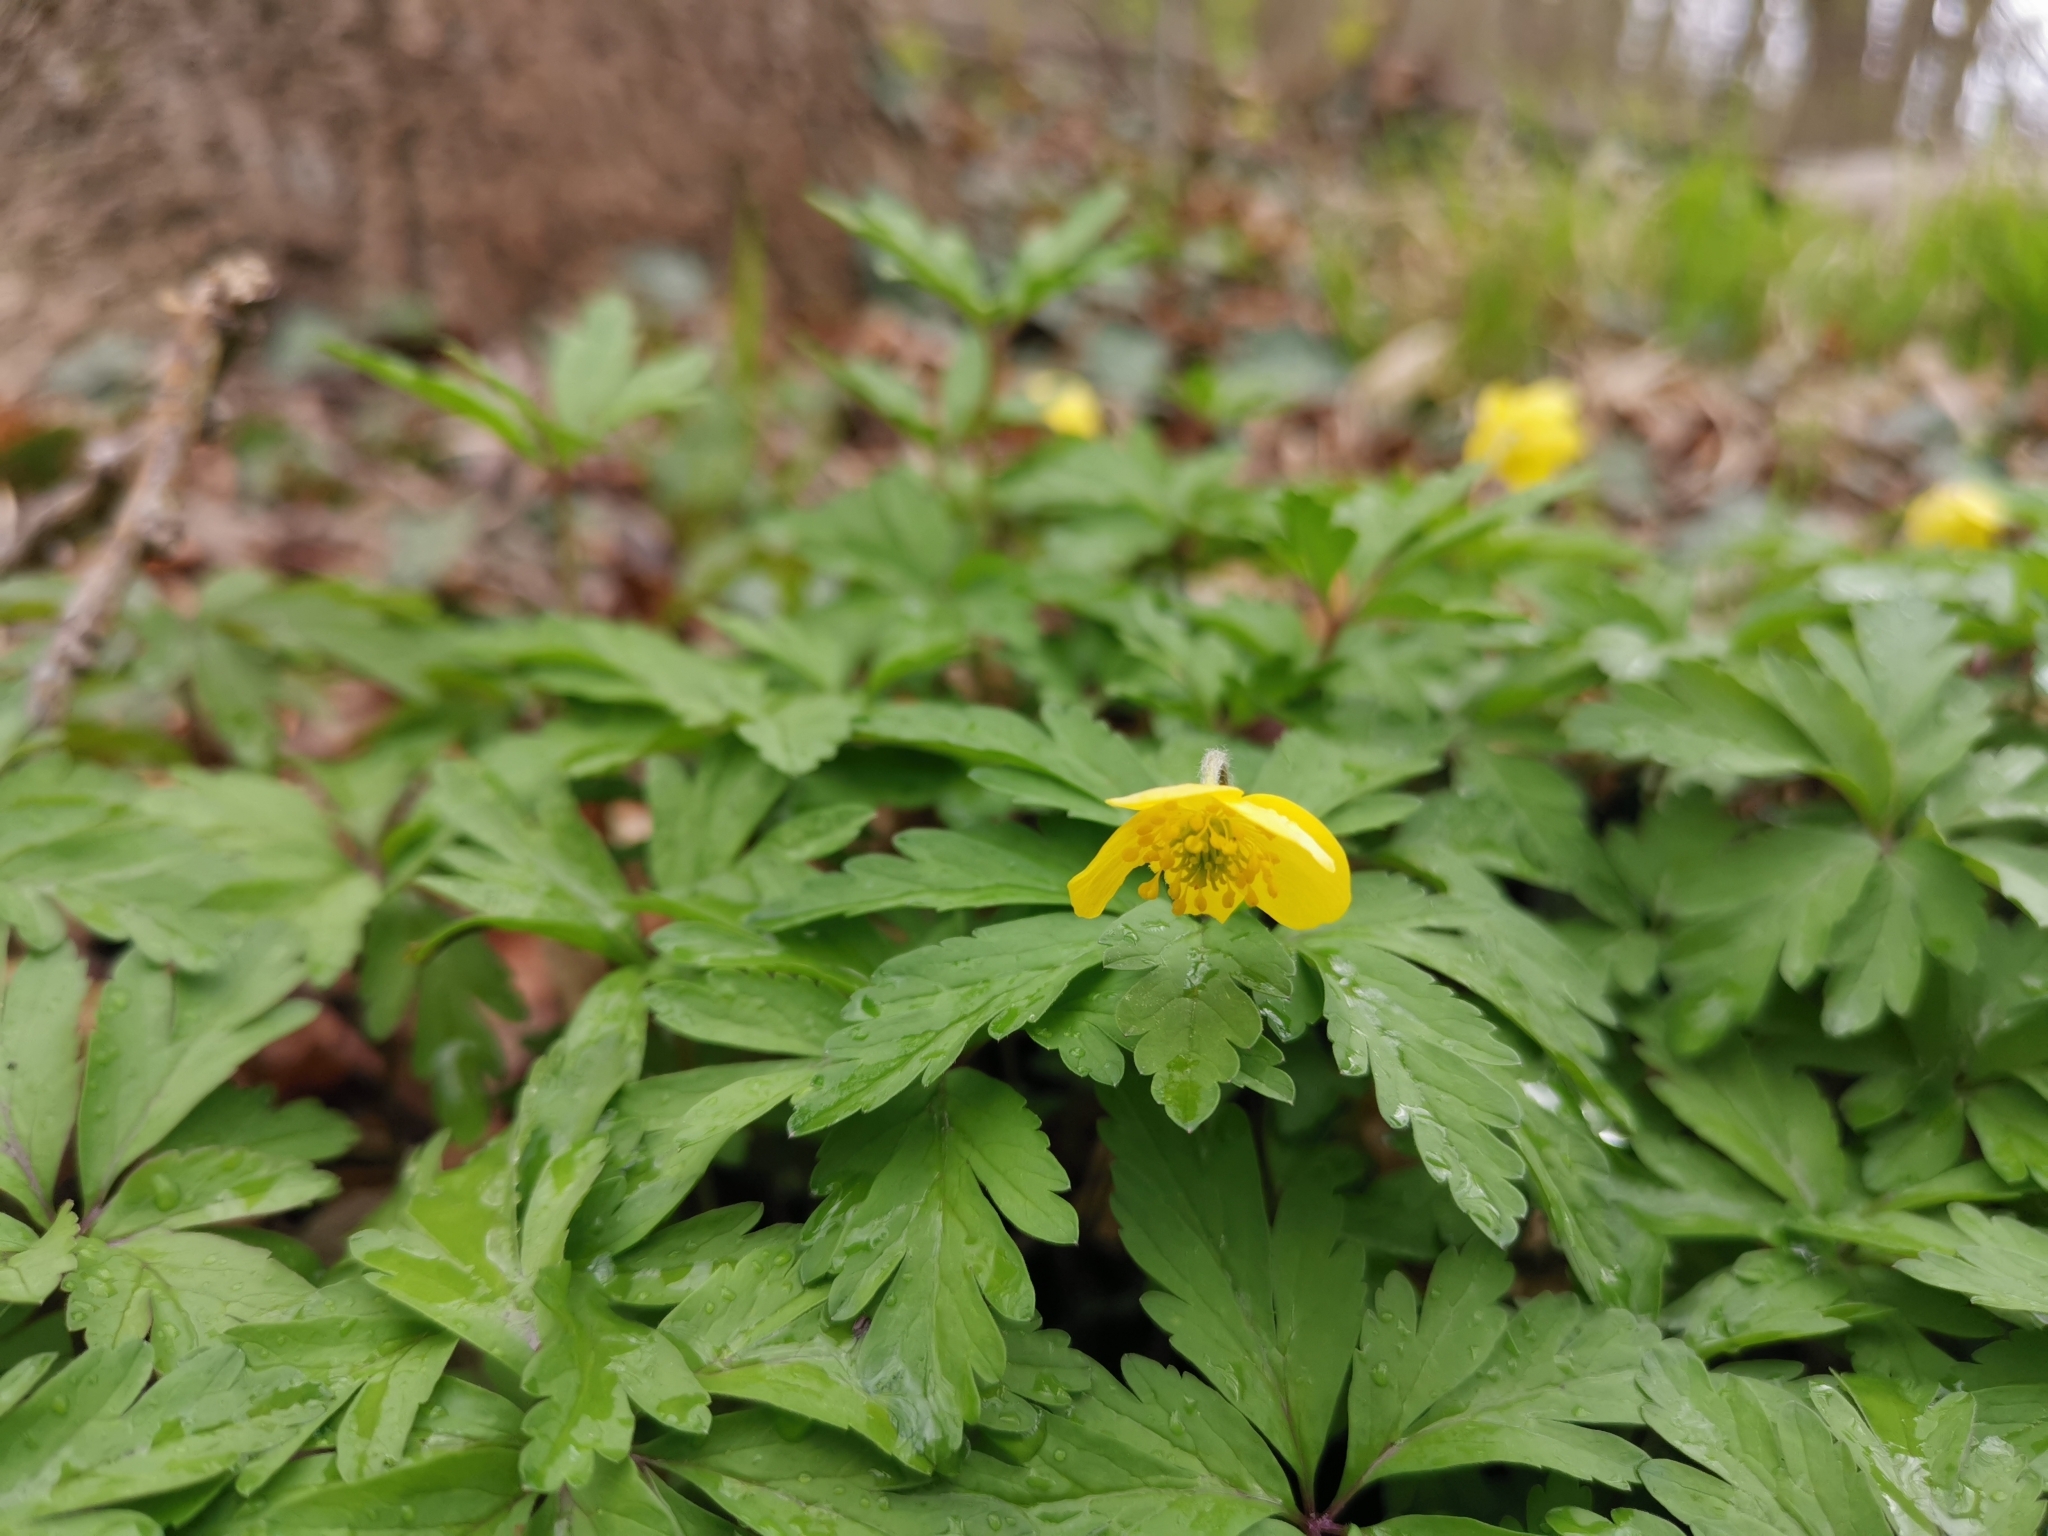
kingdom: Plantae
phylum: Tracheophyta
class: Magnoliopsida
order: Ranunculales
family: Ranunculaceae
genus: Anemone
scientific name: Anemone ranunculoides
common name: Yellow anemone
